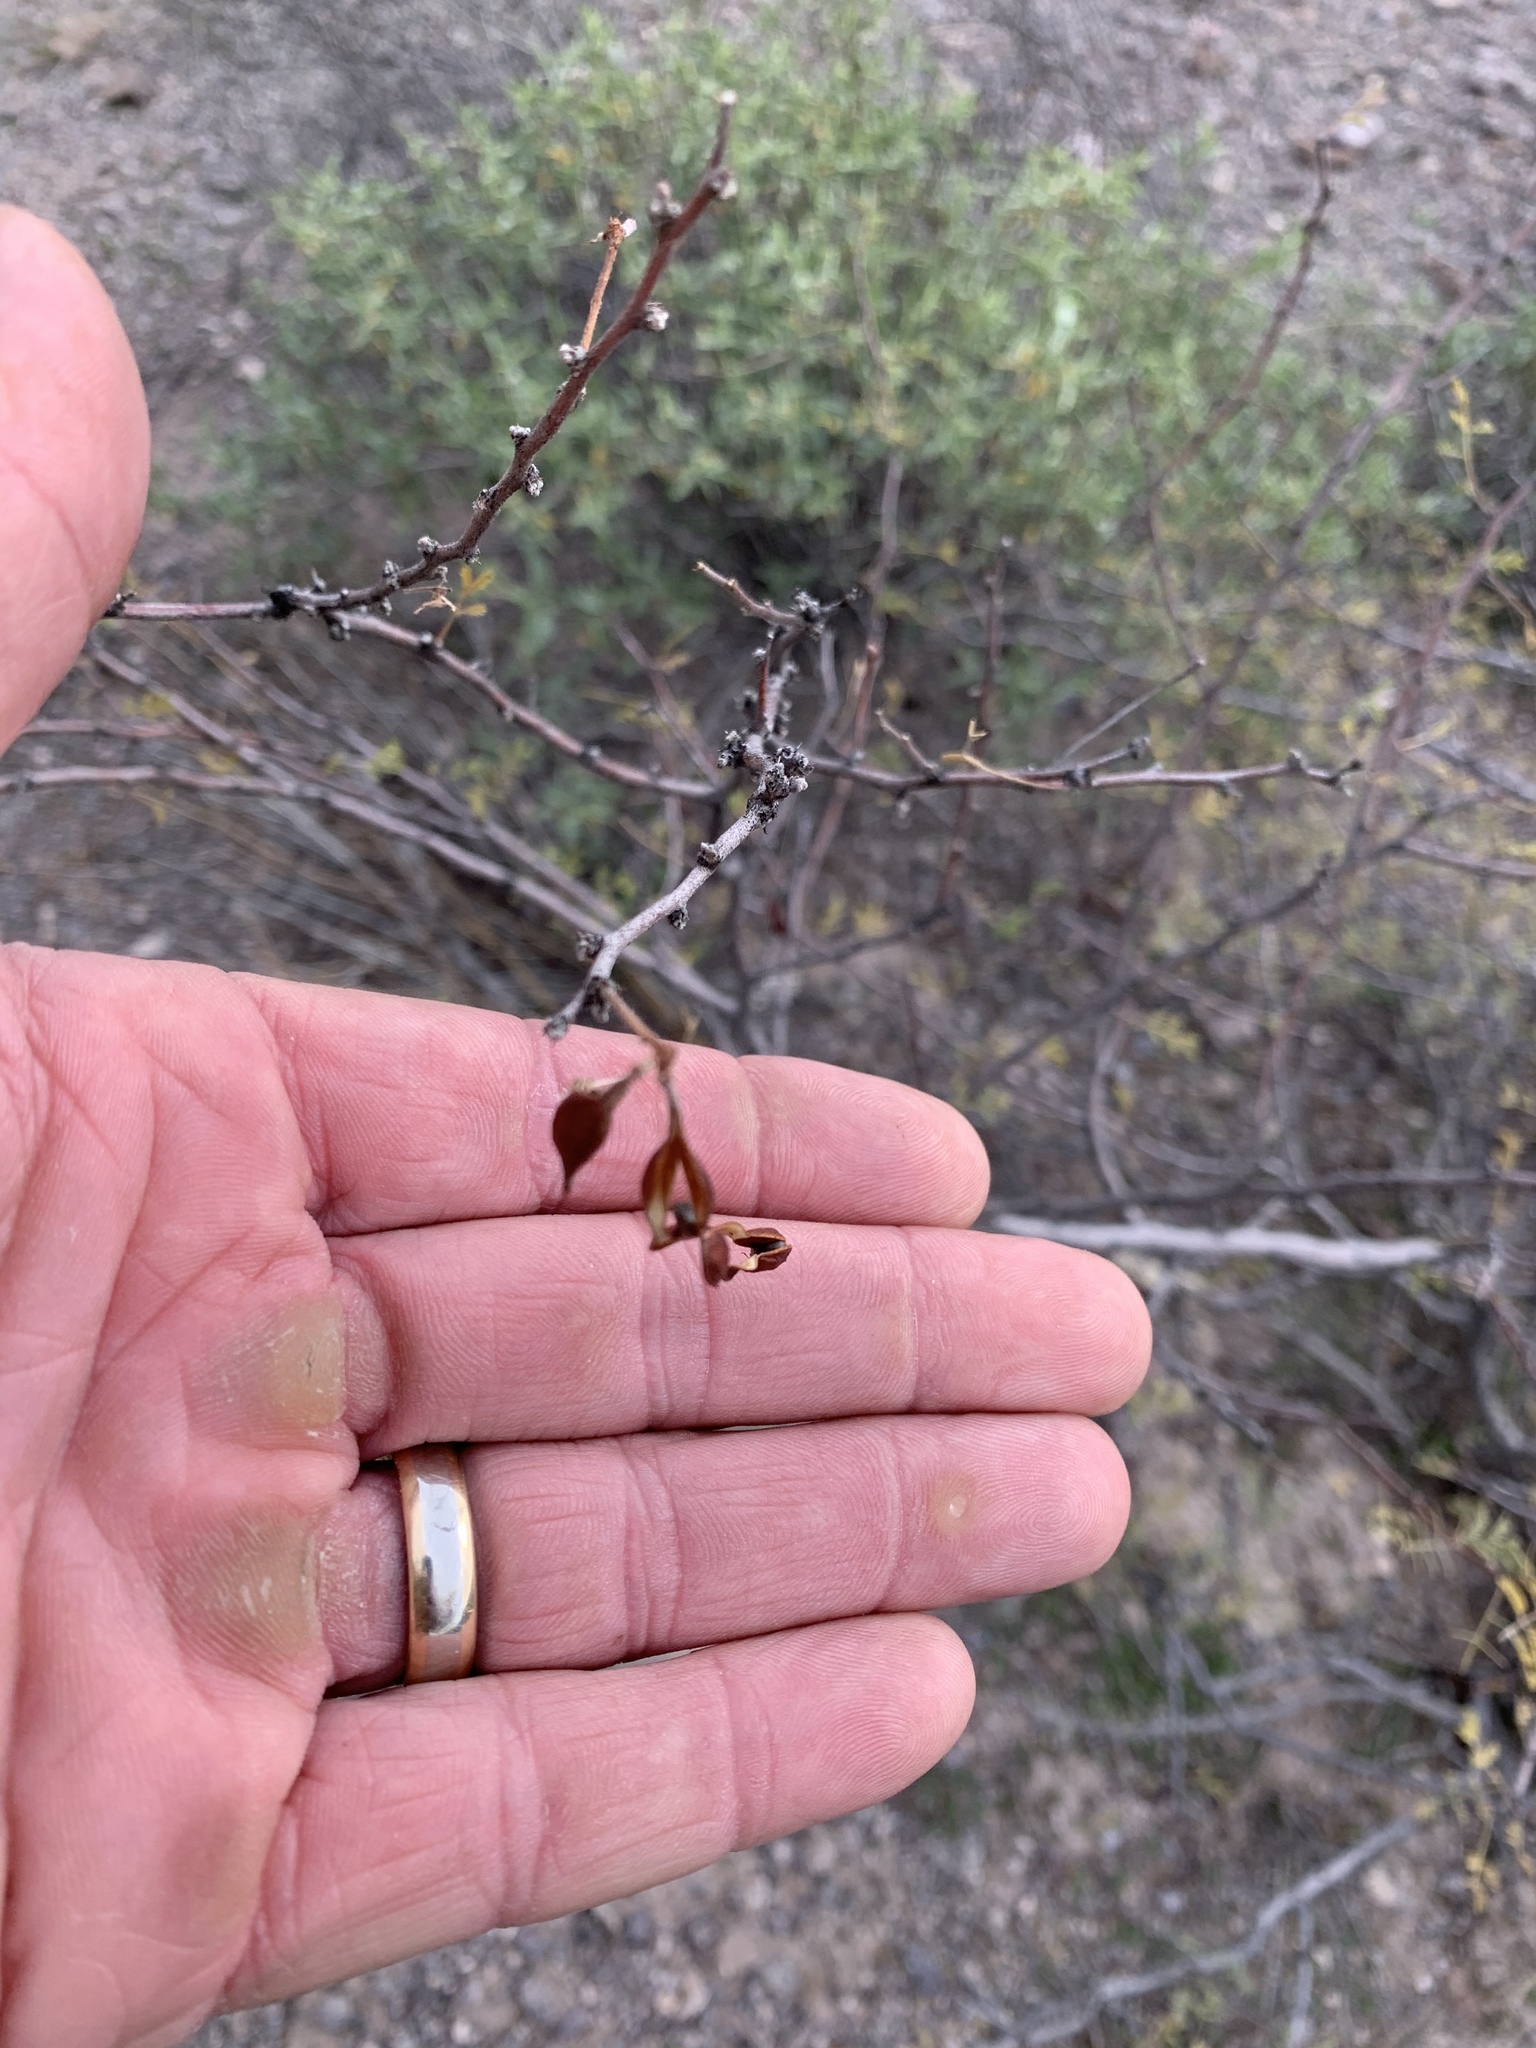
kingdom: Plantae
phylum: Tracheophyta
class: Magnoliopsida
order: Fabales
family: Fabaceae
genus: Vachellia
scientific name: Vachellia constricta
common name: Mescat acacia
